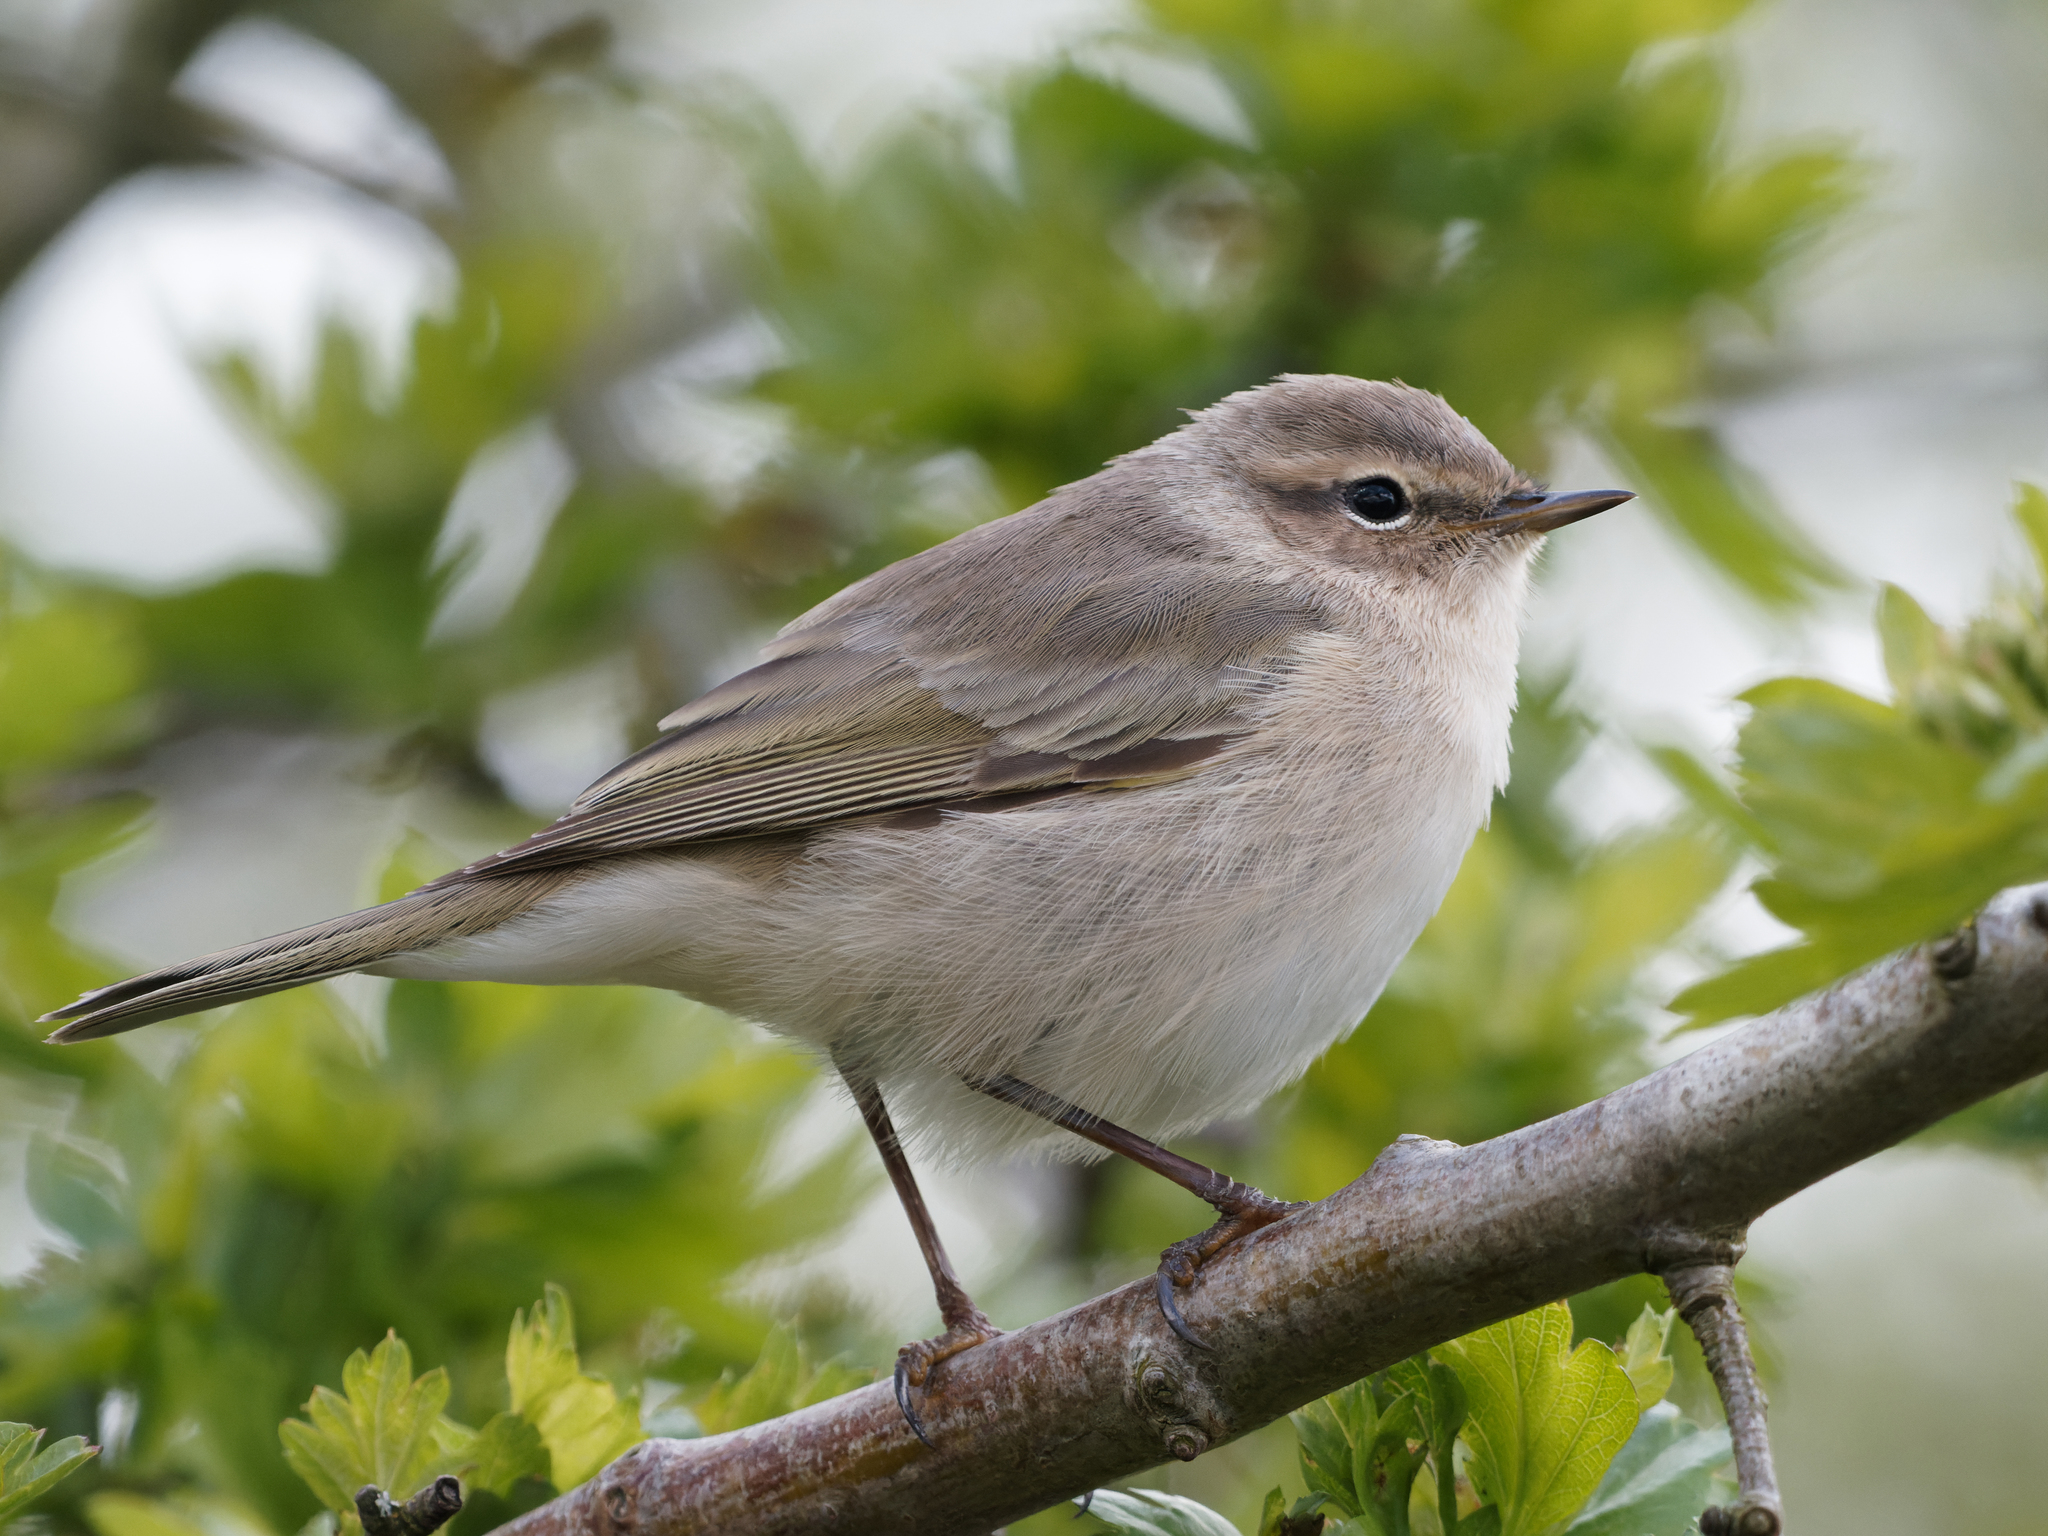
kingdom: Animalia
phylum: Chordata
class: Aves
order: Passeriformes
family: Phylloscopidae
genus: Phylloscopus
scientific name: Phylloscopus collybita
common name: Common chiffchaff
